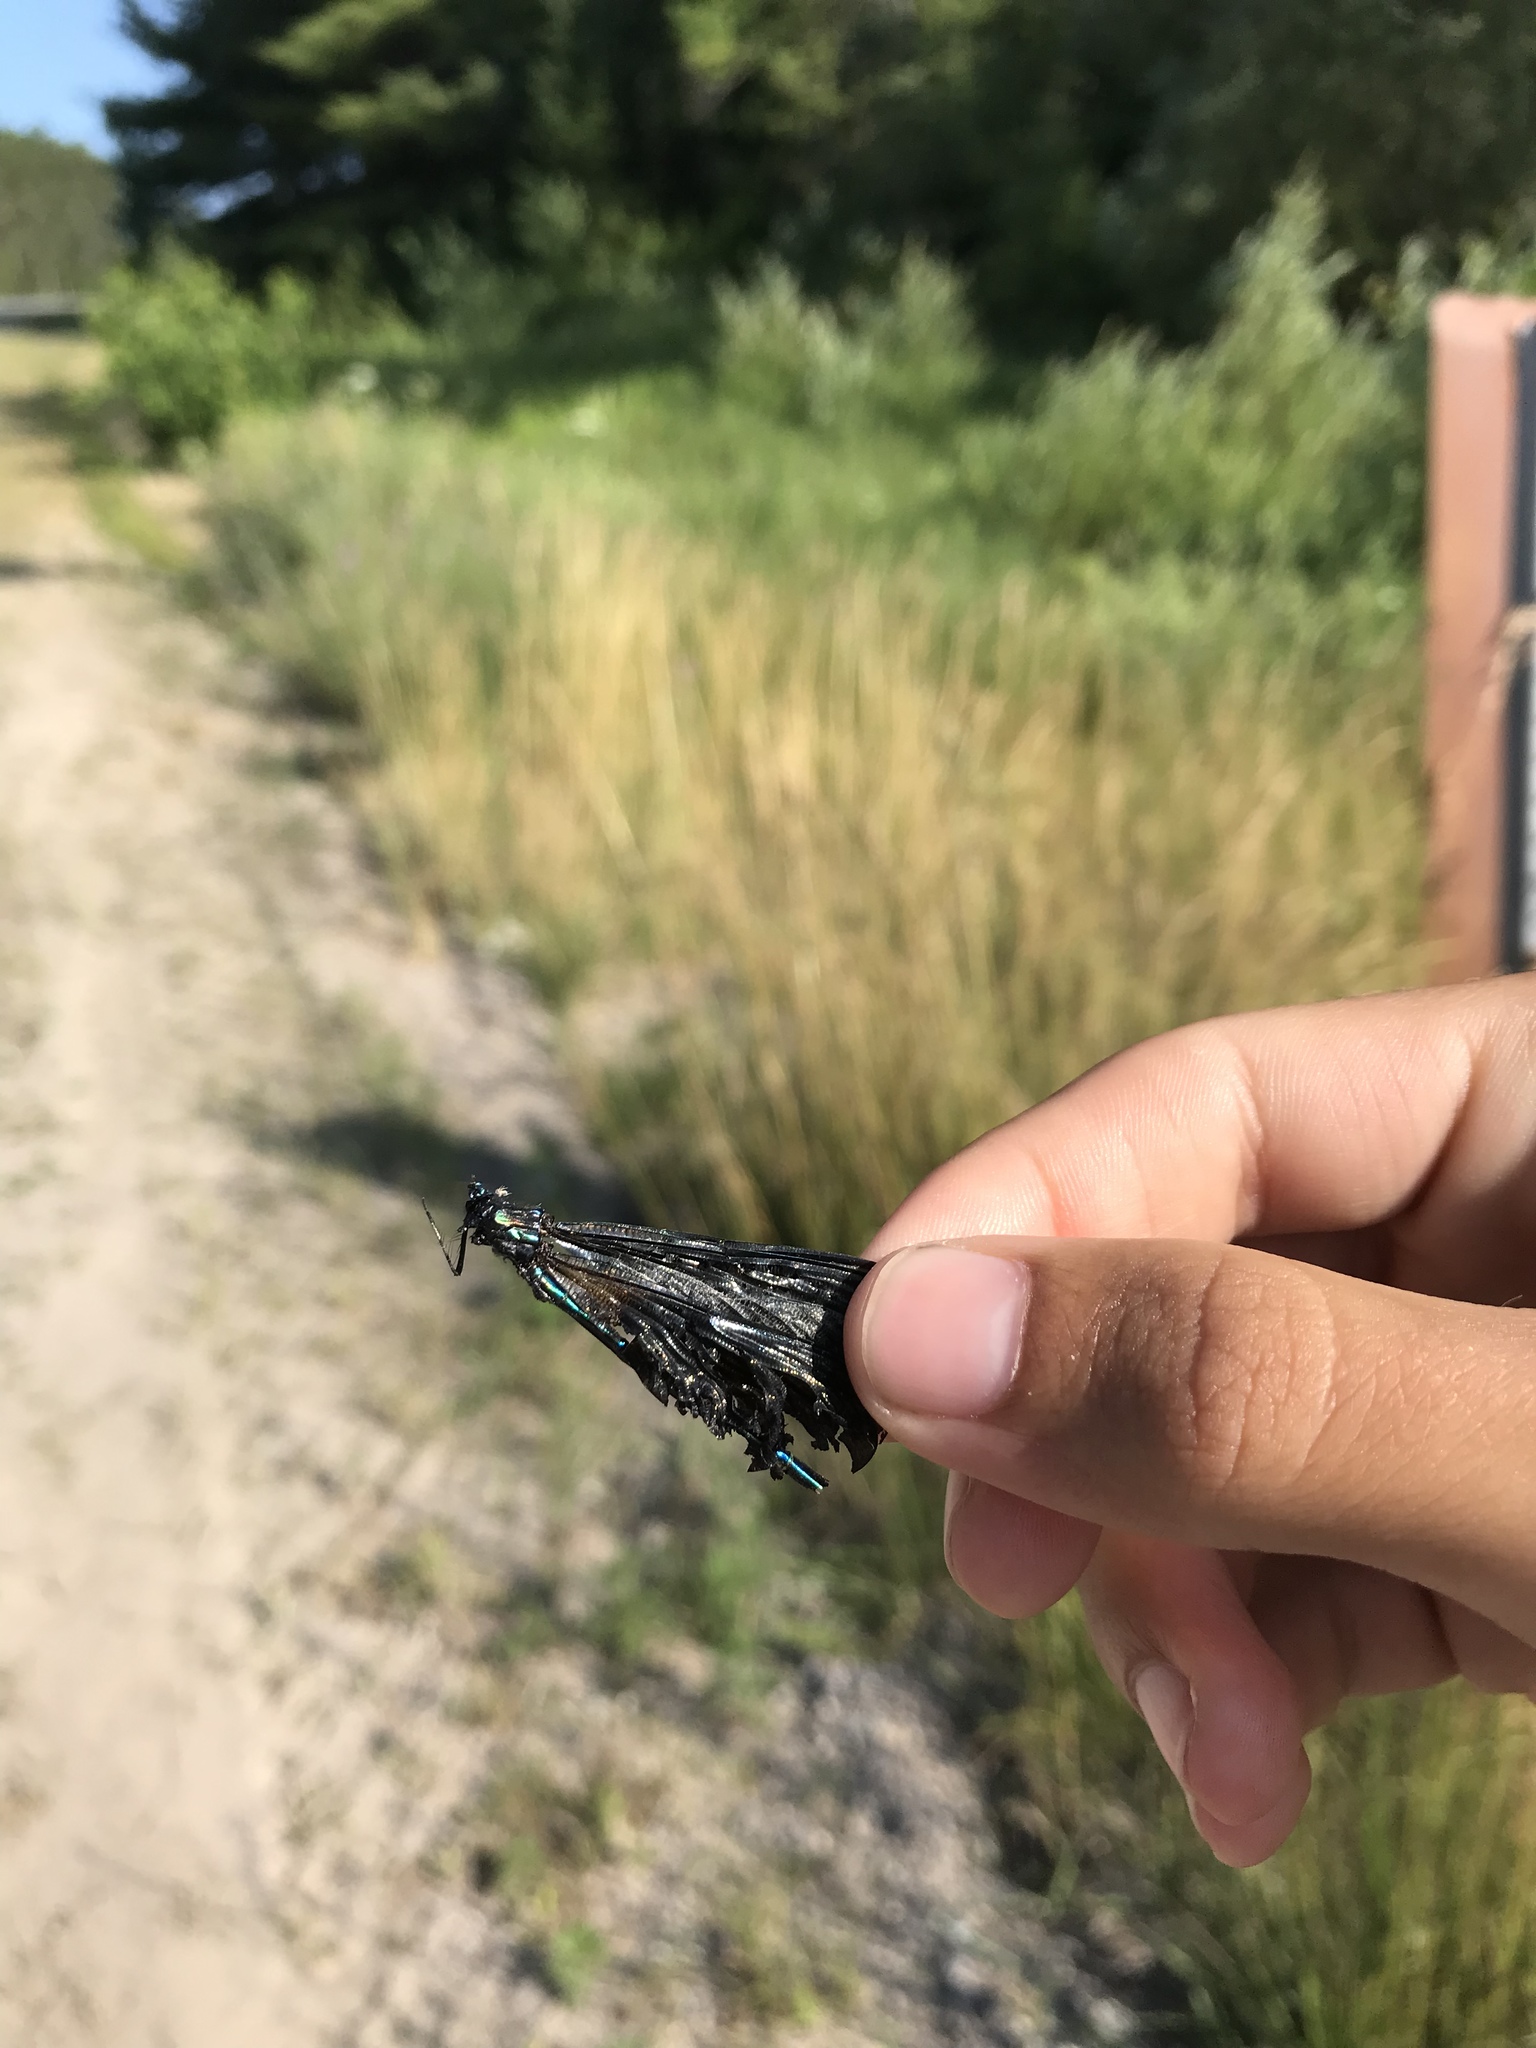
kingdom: Animalia
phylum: Arthropoda
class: Insecta
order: Odonata
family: Calopterygidae
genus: Calopteryx
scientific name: Calopteryx maculata
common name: Ebony jewelwing
